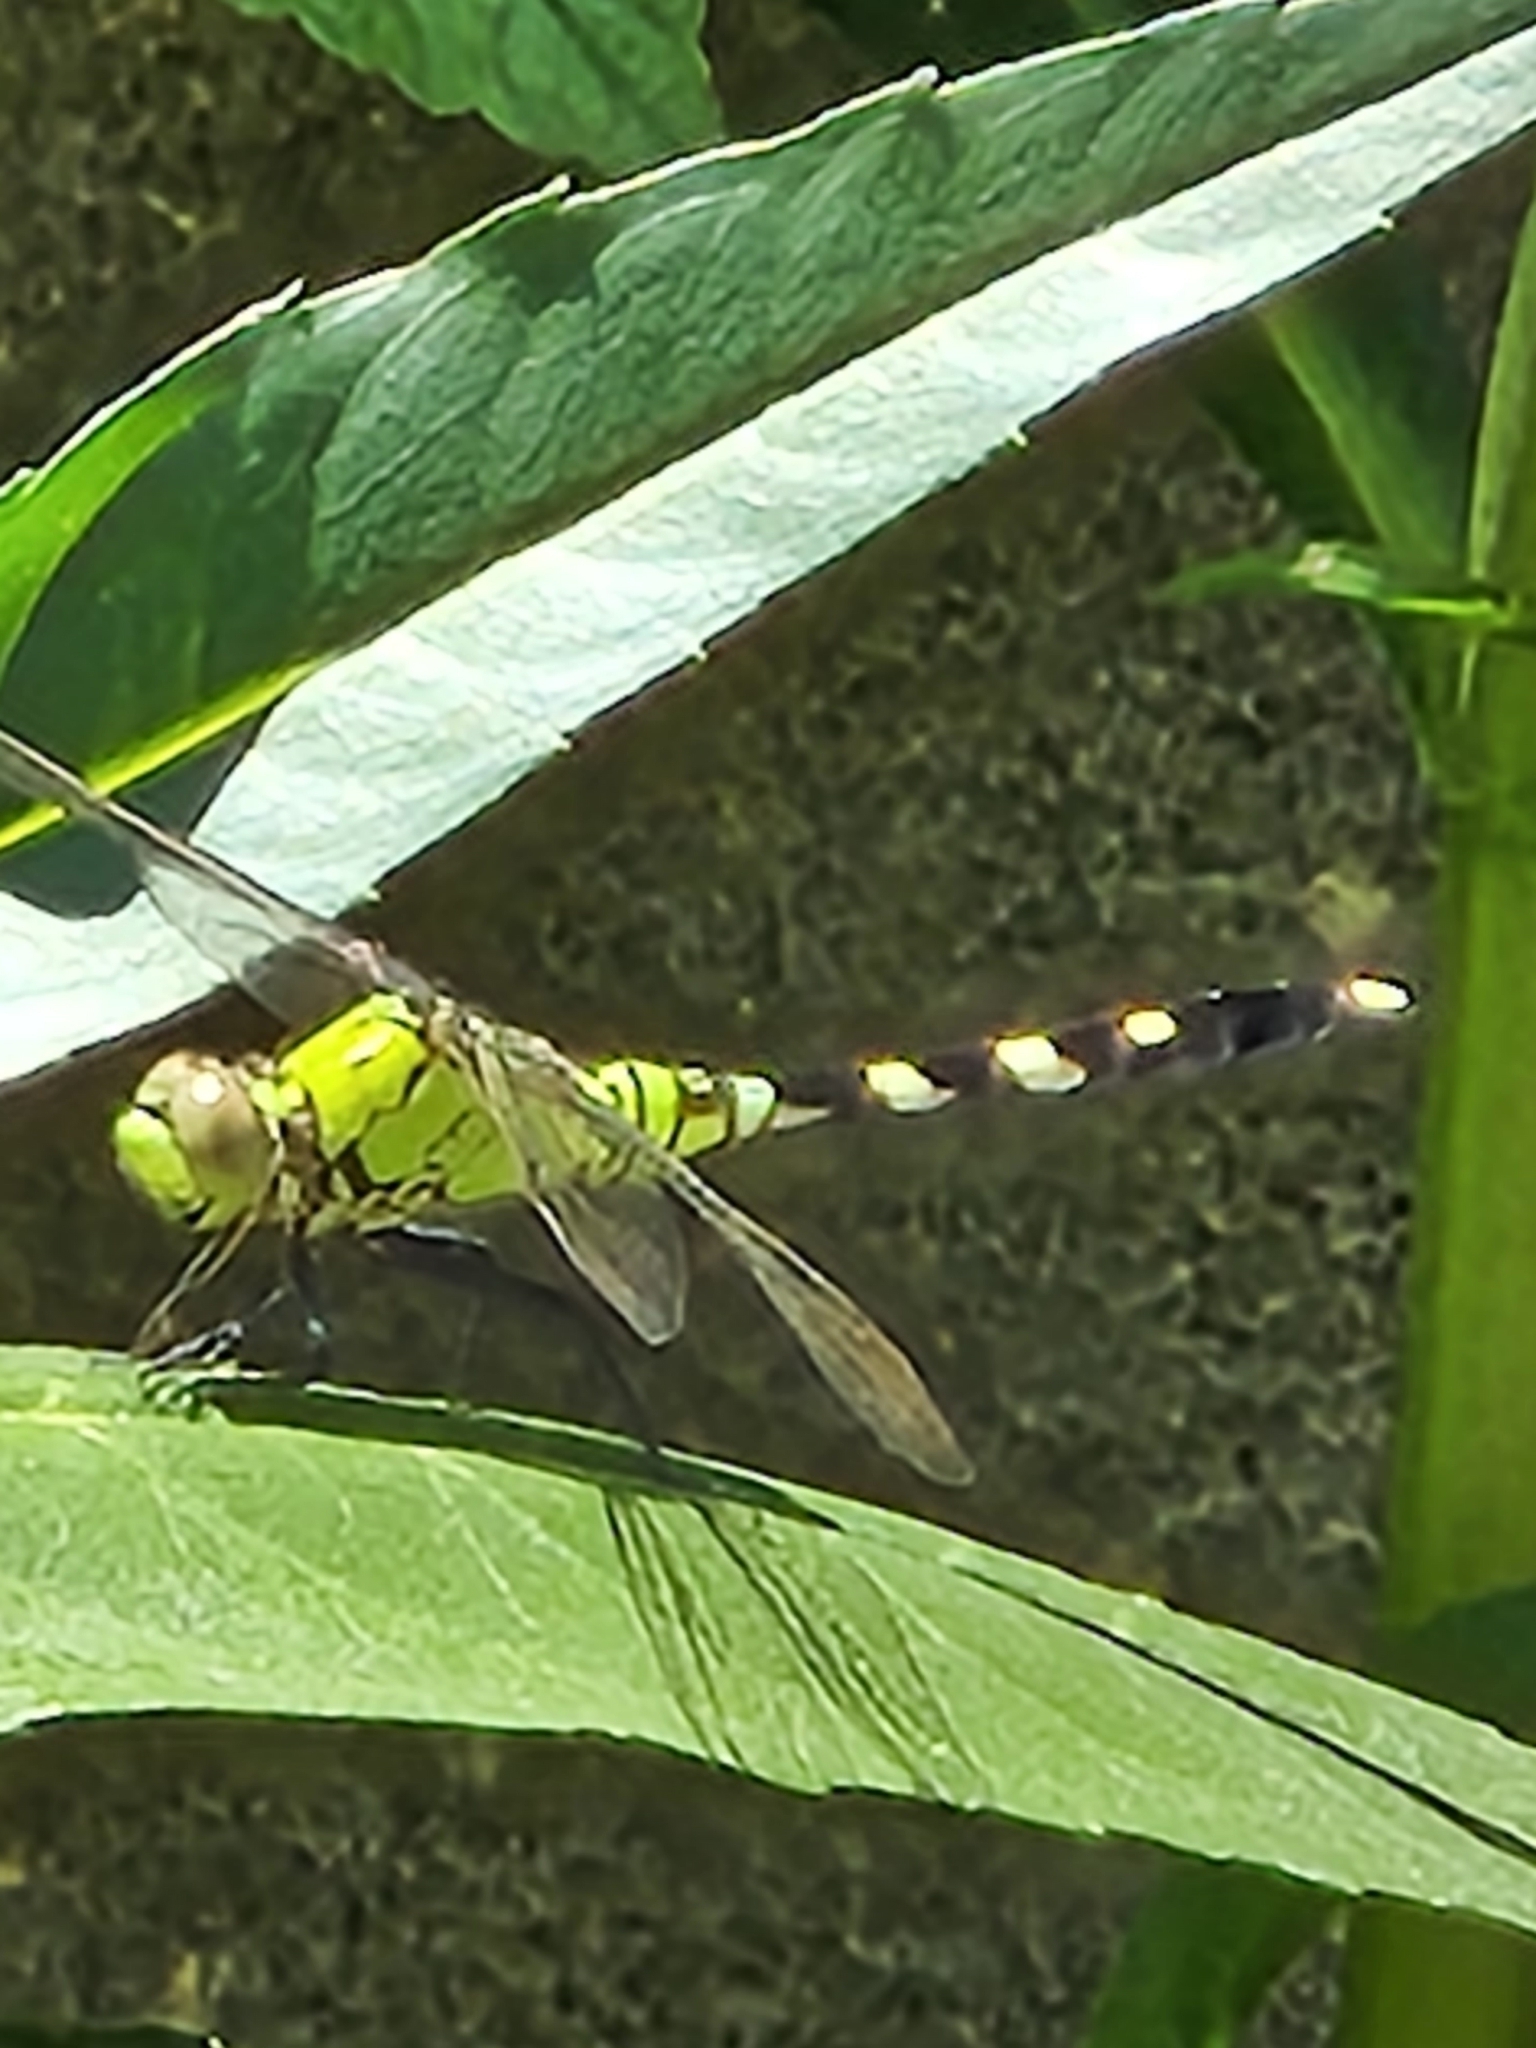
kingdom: Animalia
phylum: Arthropoda
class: Insecta
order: Odonata
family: Libellulidae
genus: Erythemis
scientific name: Erythemis simplicicollis
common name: Eastern pondhawk
